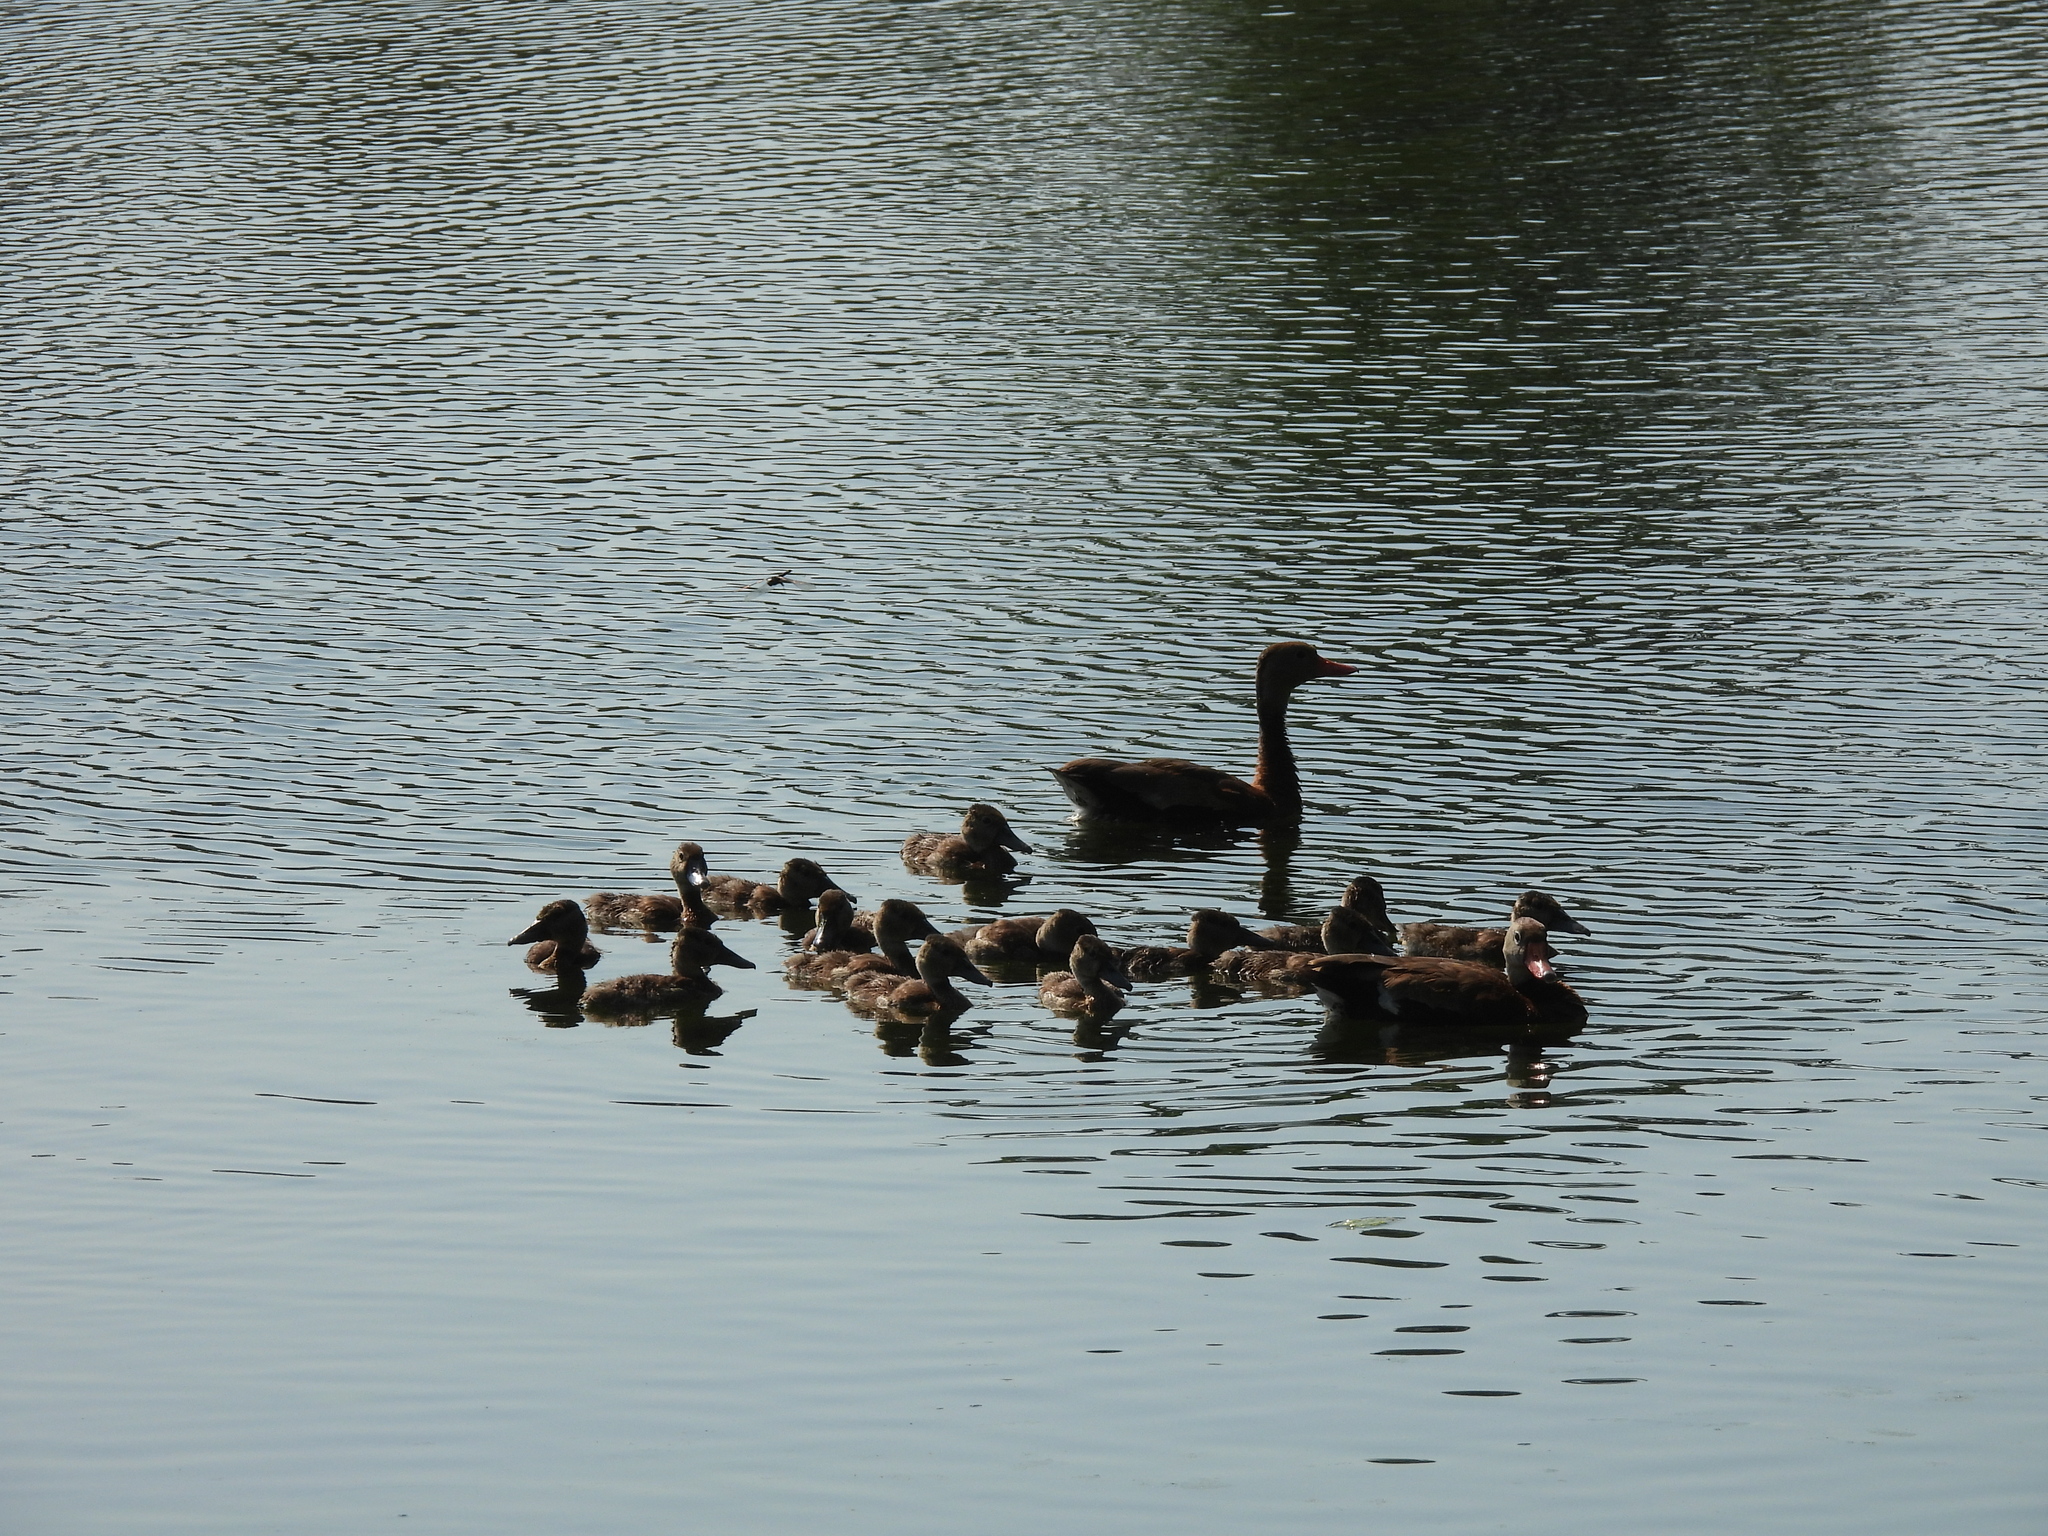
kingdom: Animalia
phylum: Chordata
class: Aves
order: Anseriformes
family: Anatidae
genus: Dendrocygna
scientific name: Dendrocygna autumnalis
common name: Black-bellied whistling duck
